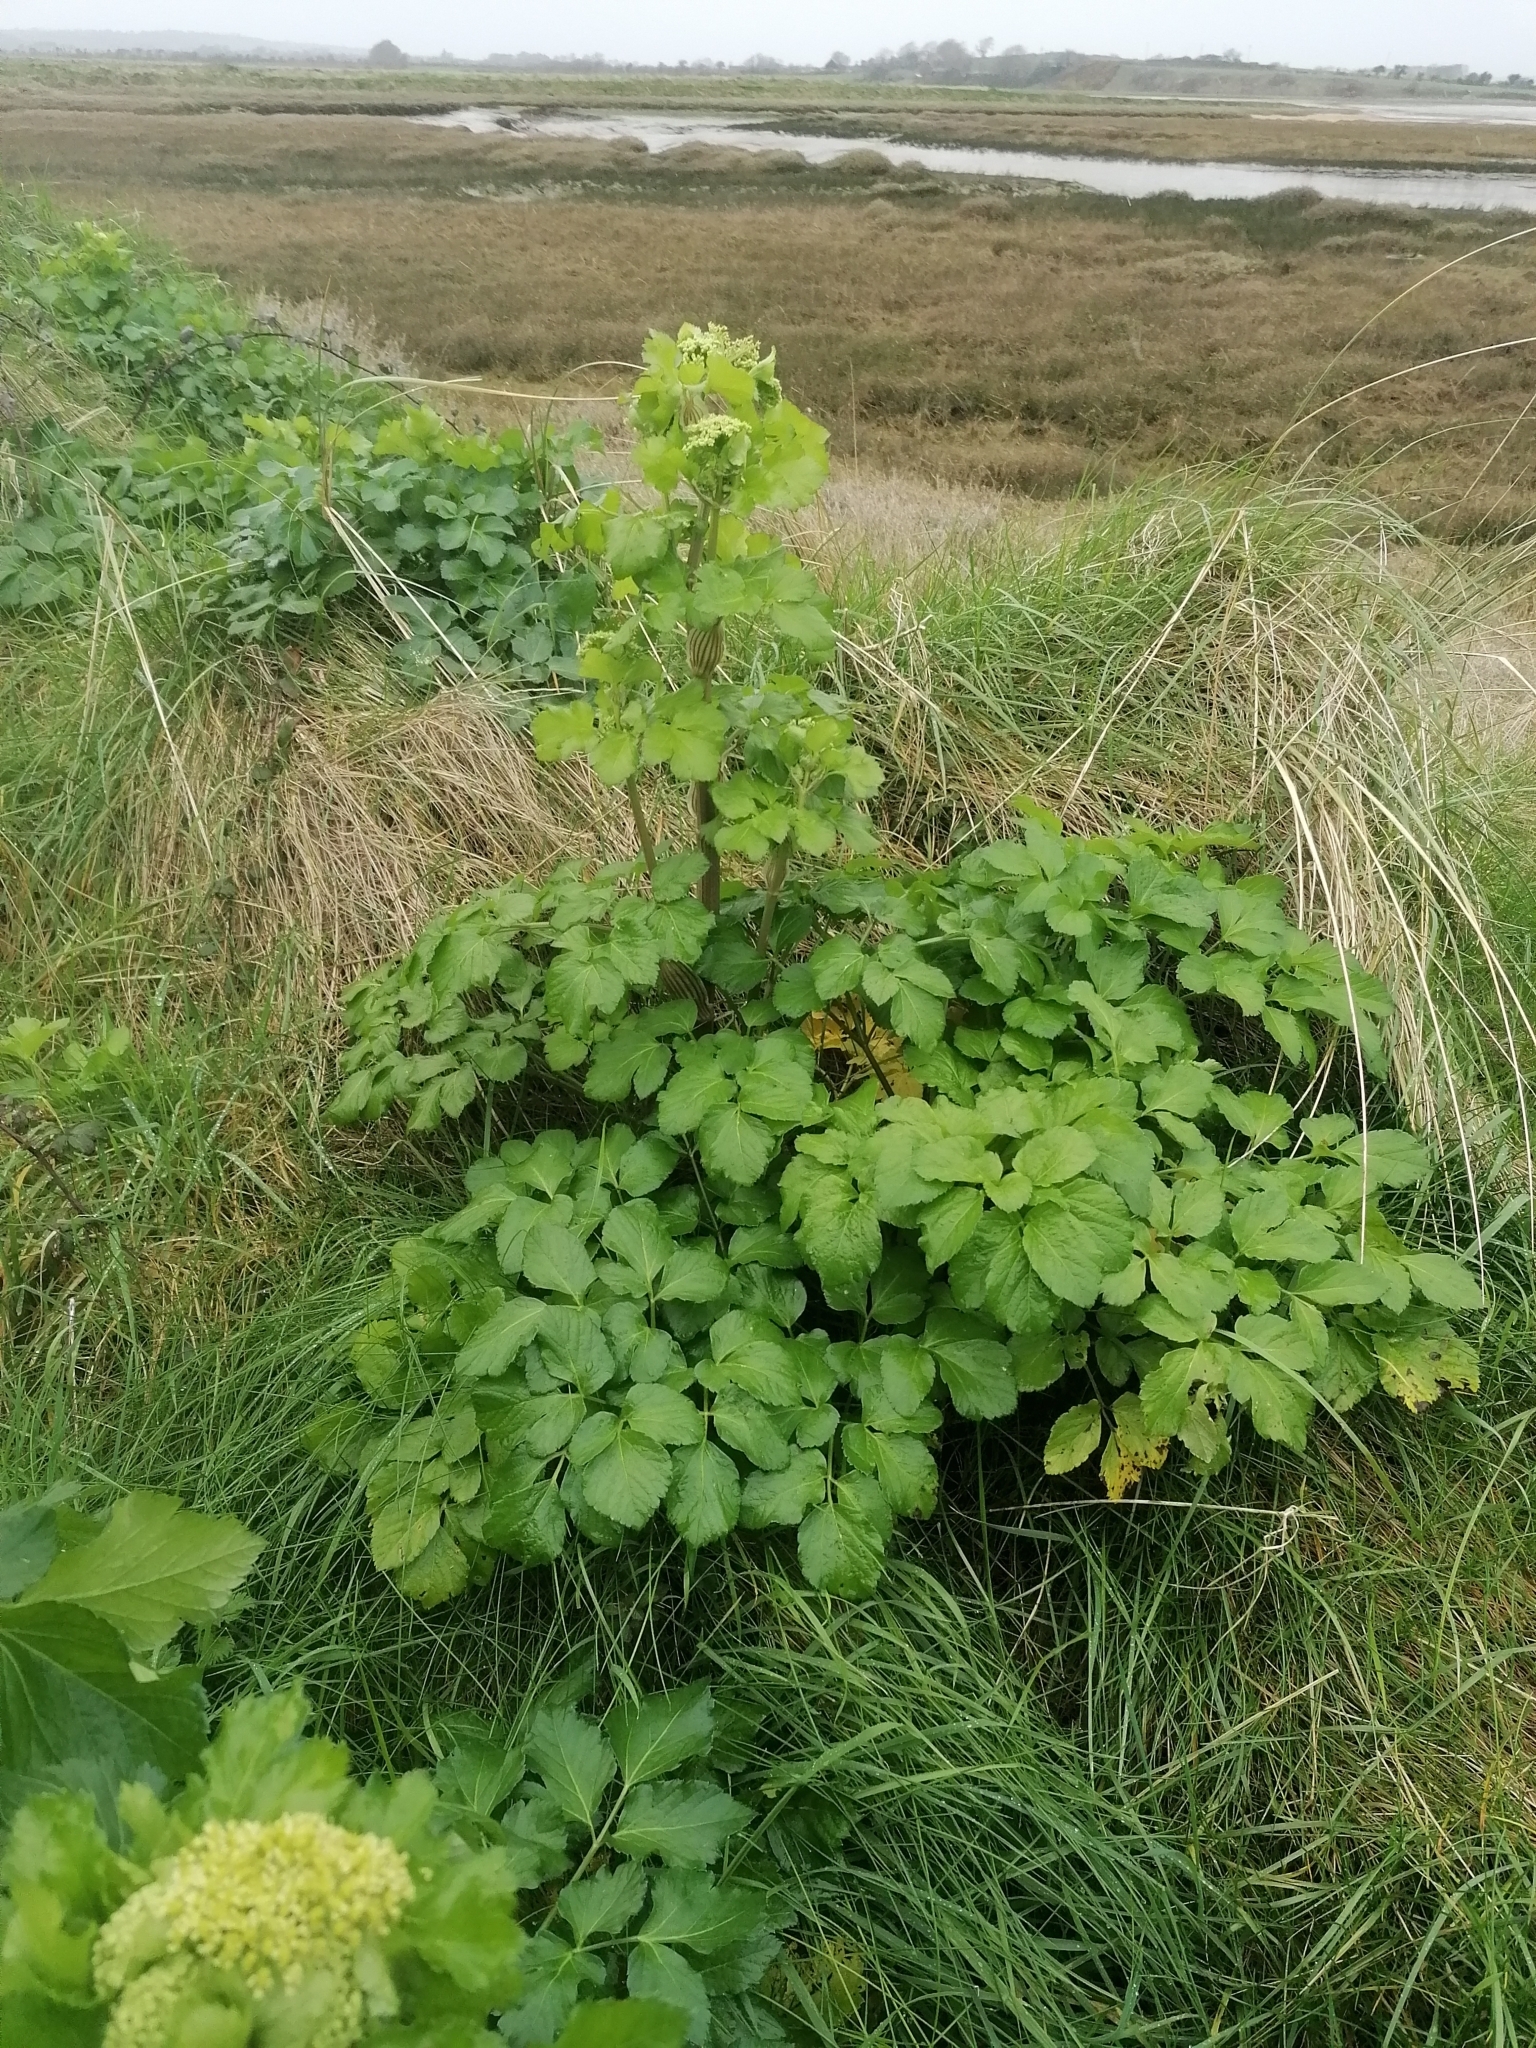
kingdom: Plantae
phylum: Tracheophyta
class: Magnoliopsida
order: Apiales
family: Apiaceae
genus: Smyrnium
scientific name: Smyrnium olusatrum
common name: Alexanders
